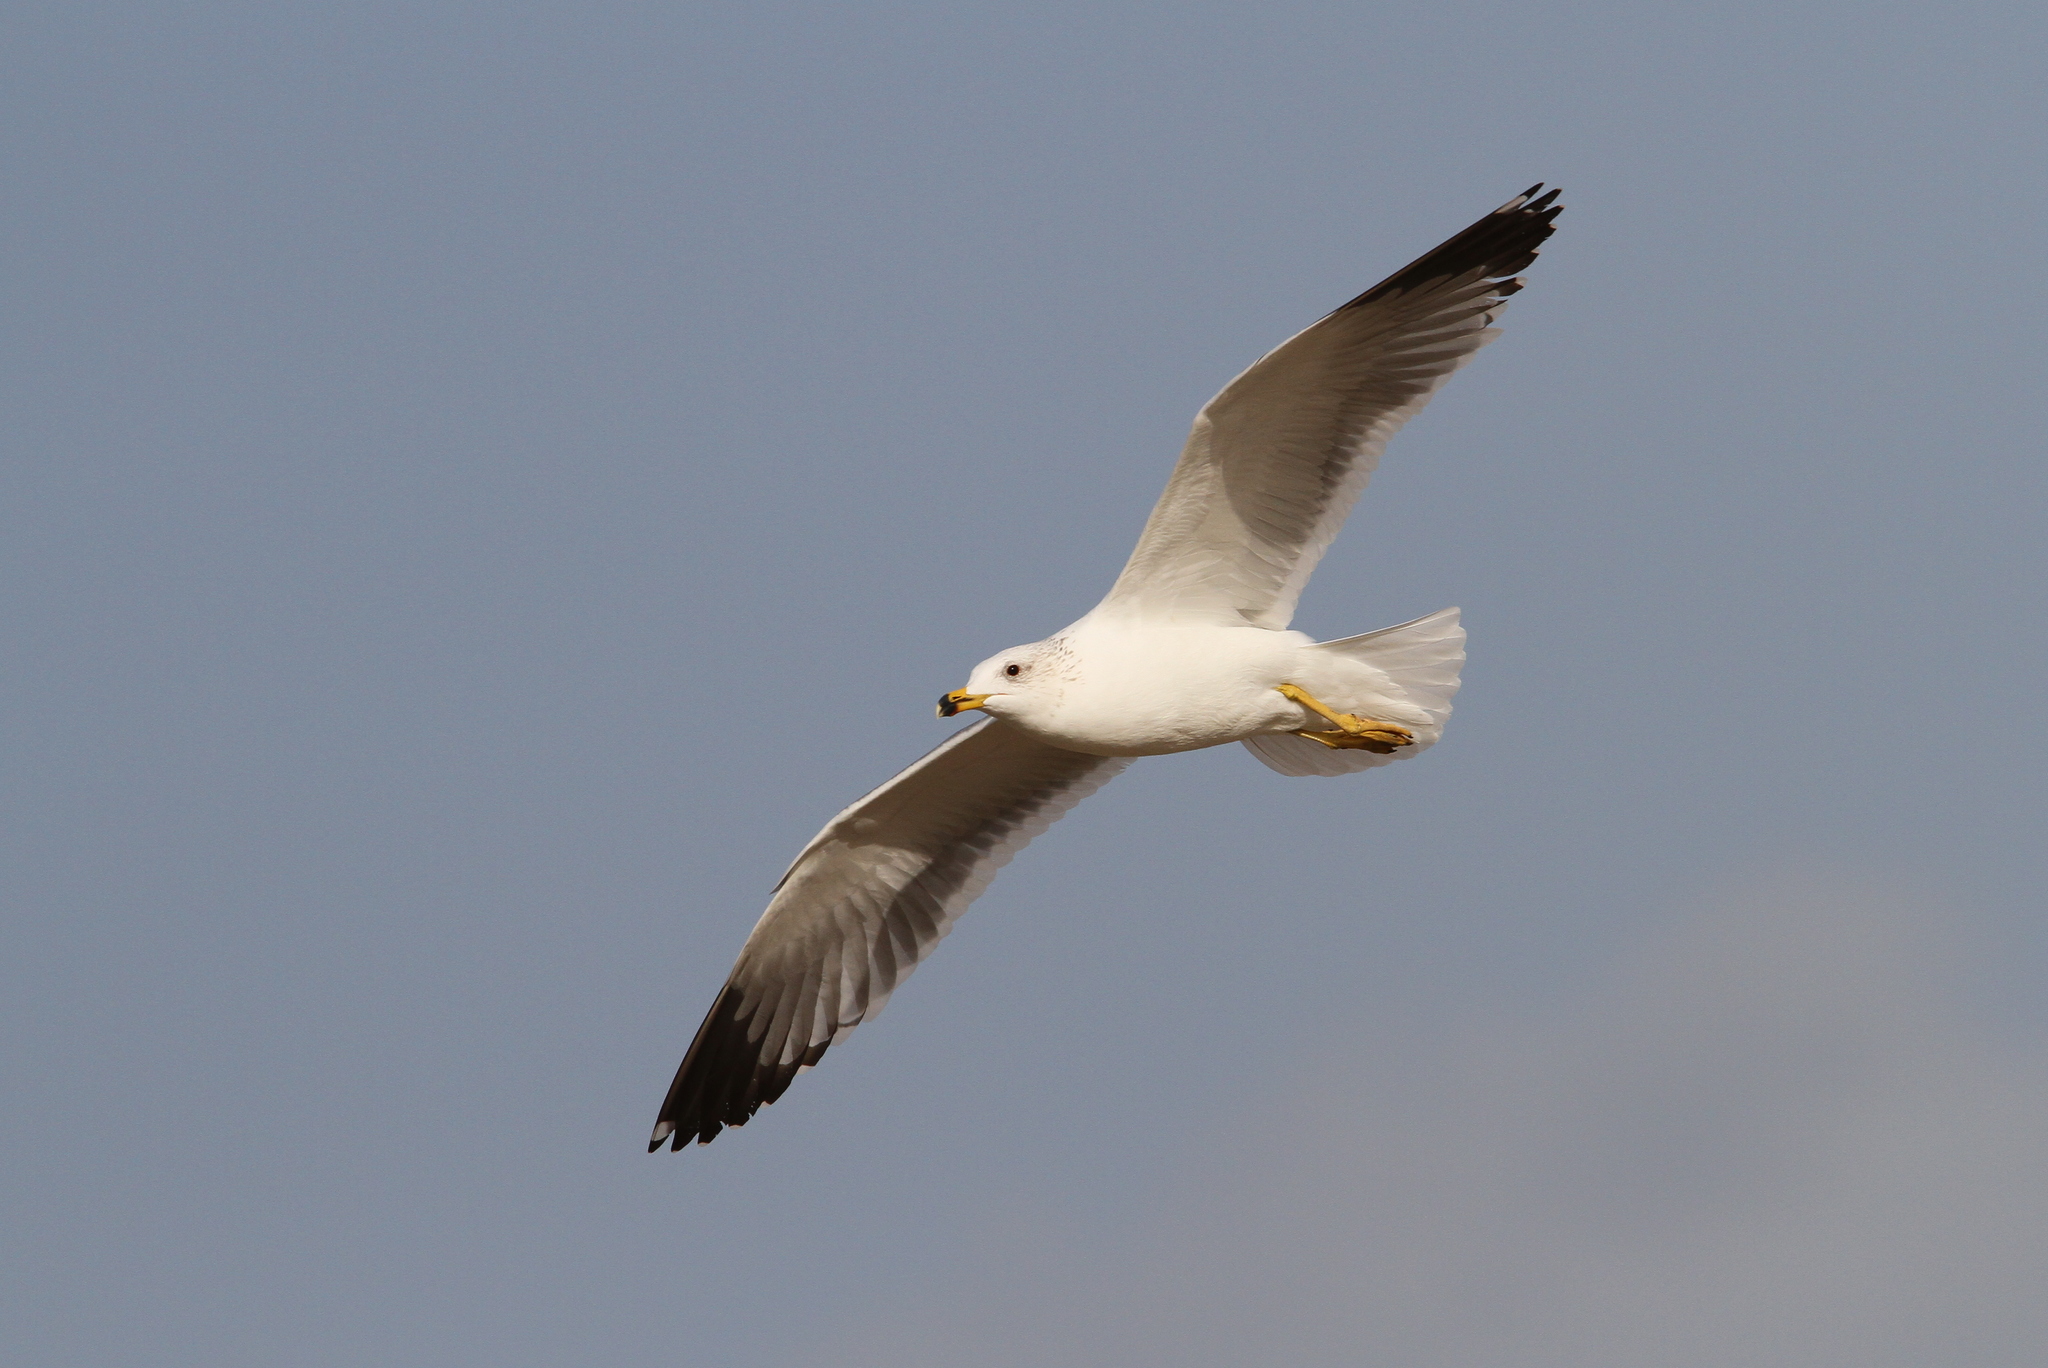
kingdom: Animalia
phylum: Chordata
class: Aves
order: Charadriiformes
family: Laridae
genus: Larus
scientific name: Larus armenicus
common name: Armenian gull
